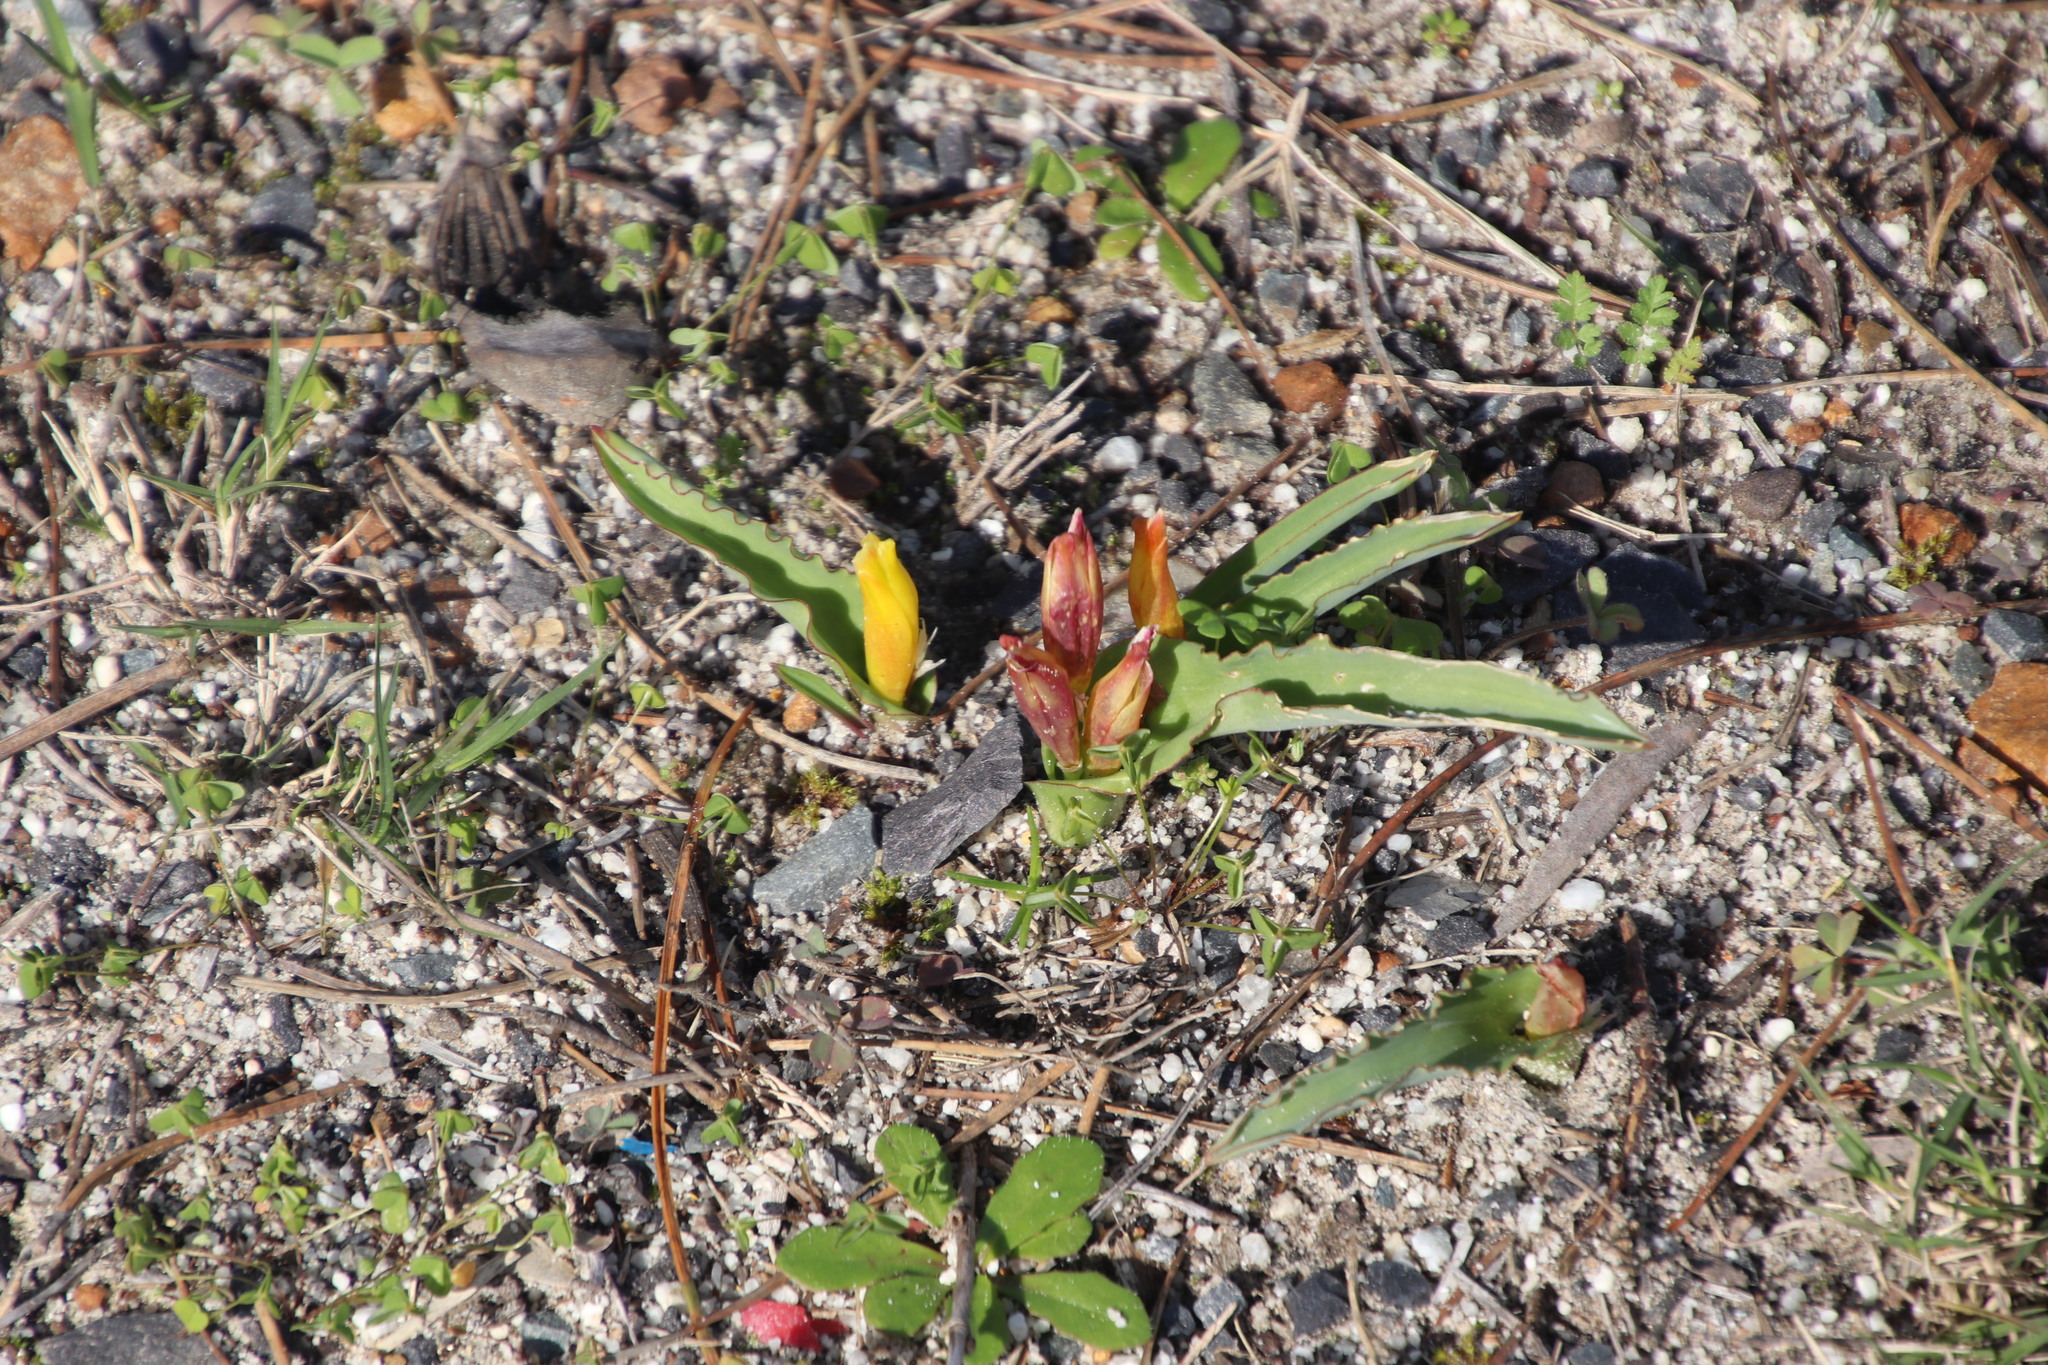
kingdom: Plantae
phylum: Tracheophyta
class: Liliopsida
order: Asparagales
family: Asparagaceae
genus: Lachenalia
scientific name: Lachenalia reflexa
